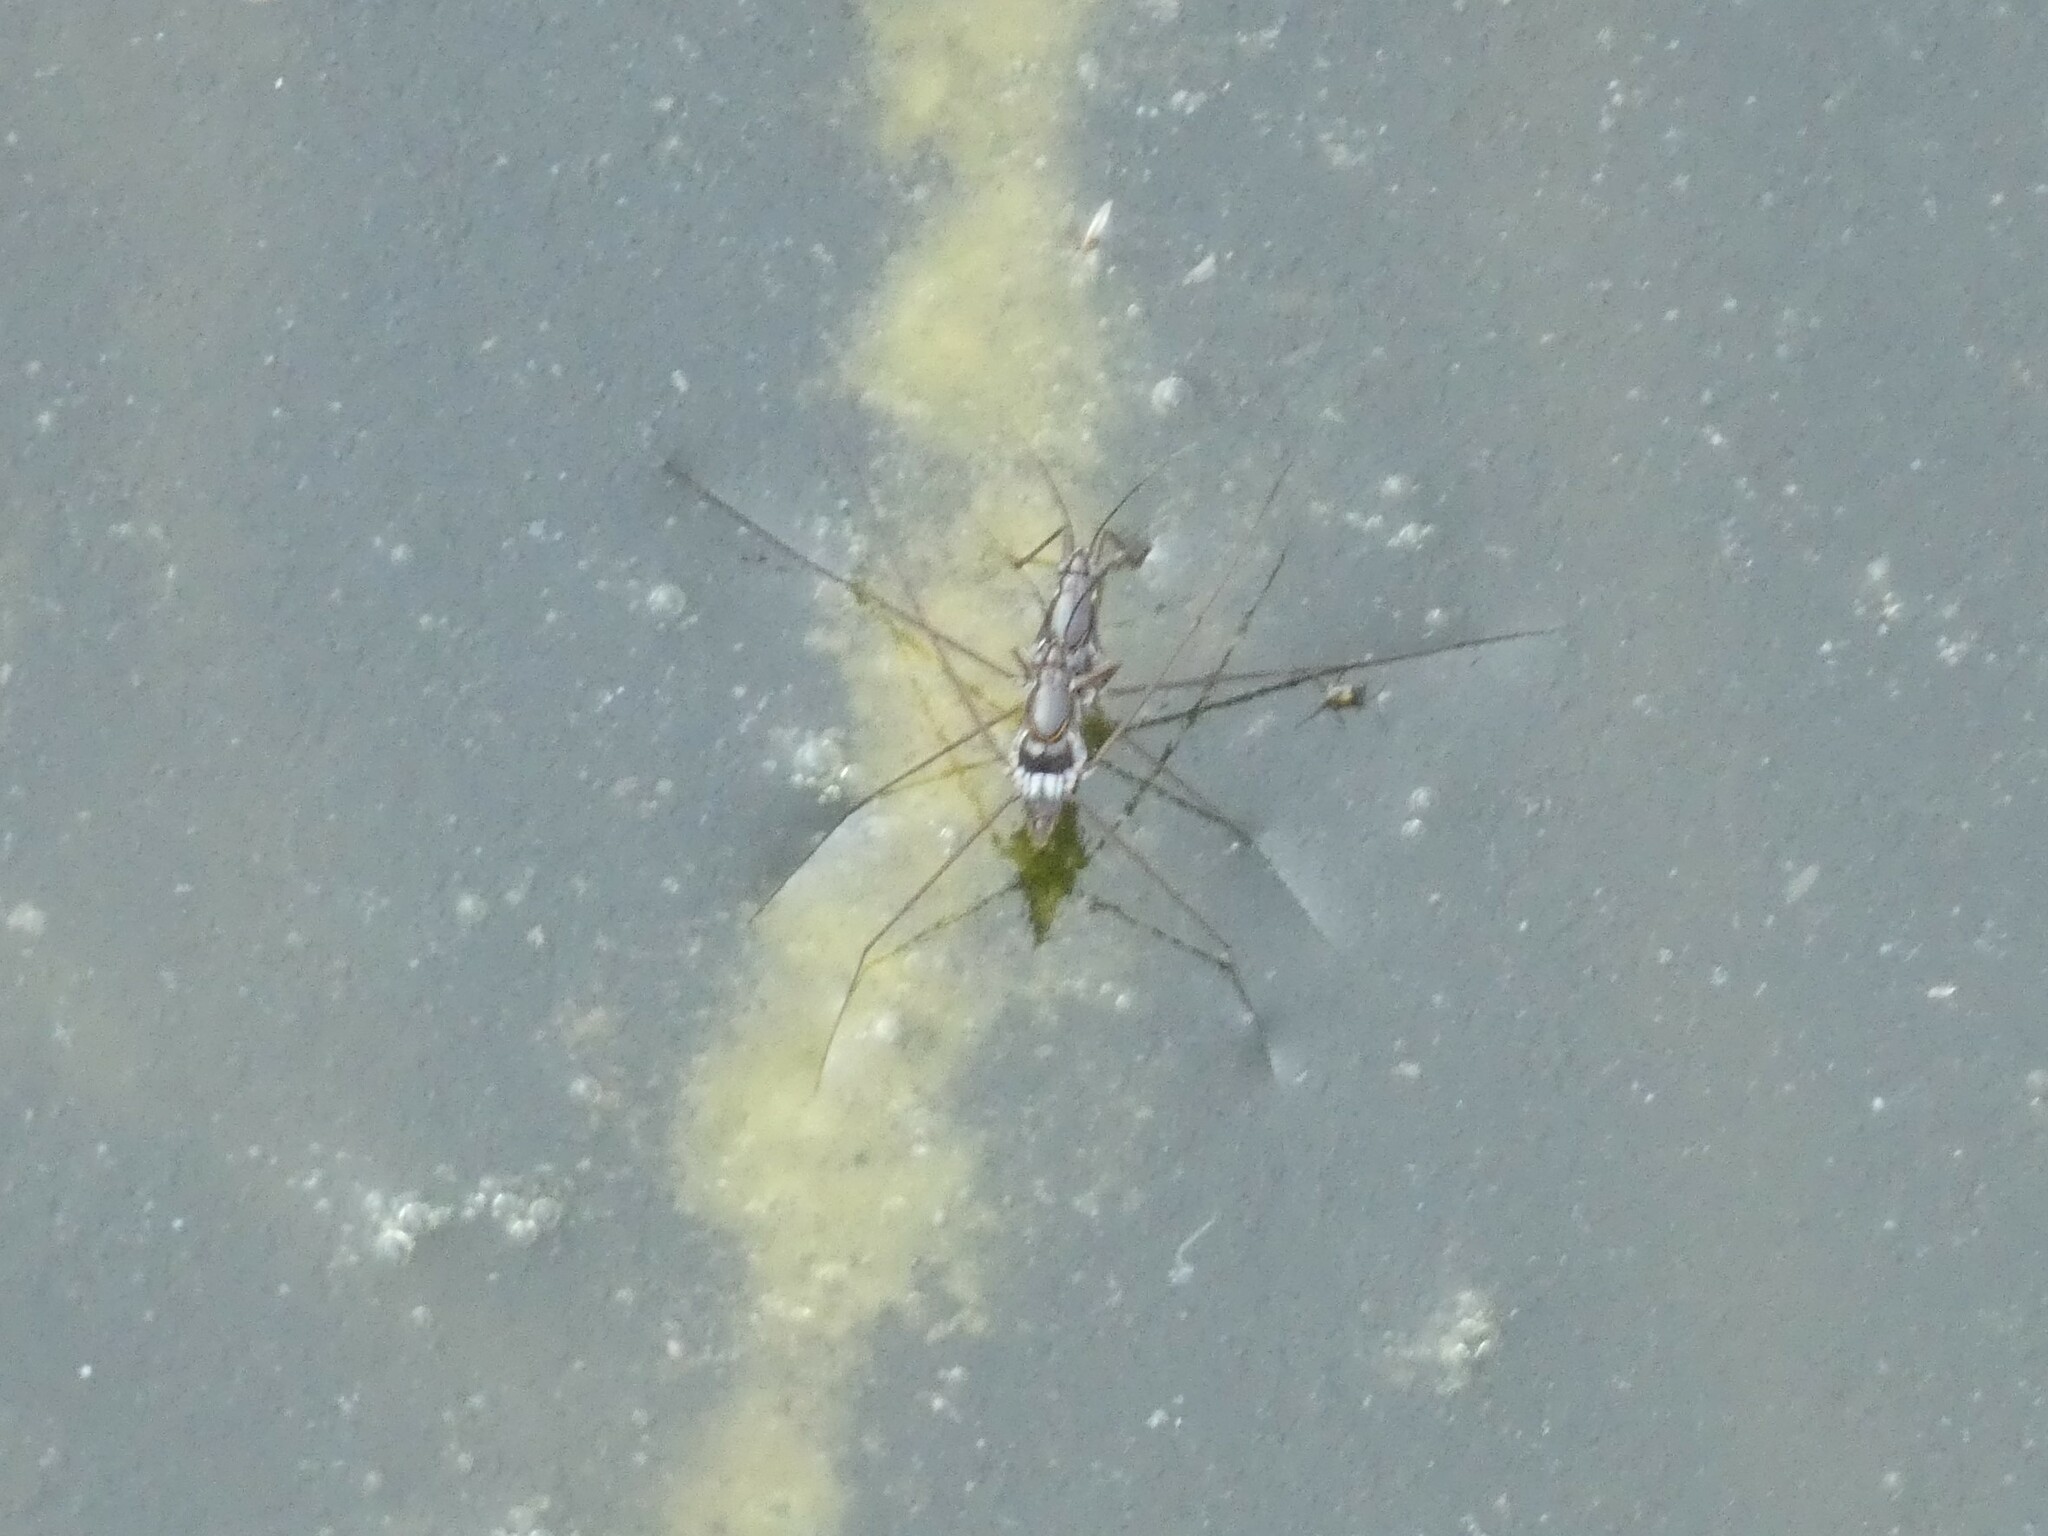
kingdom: Animalia
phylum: Arthropoda
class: Insecta
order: Hemiptera
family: Gerridae
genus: Limnogonus
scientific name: Limnogonus fossarum
